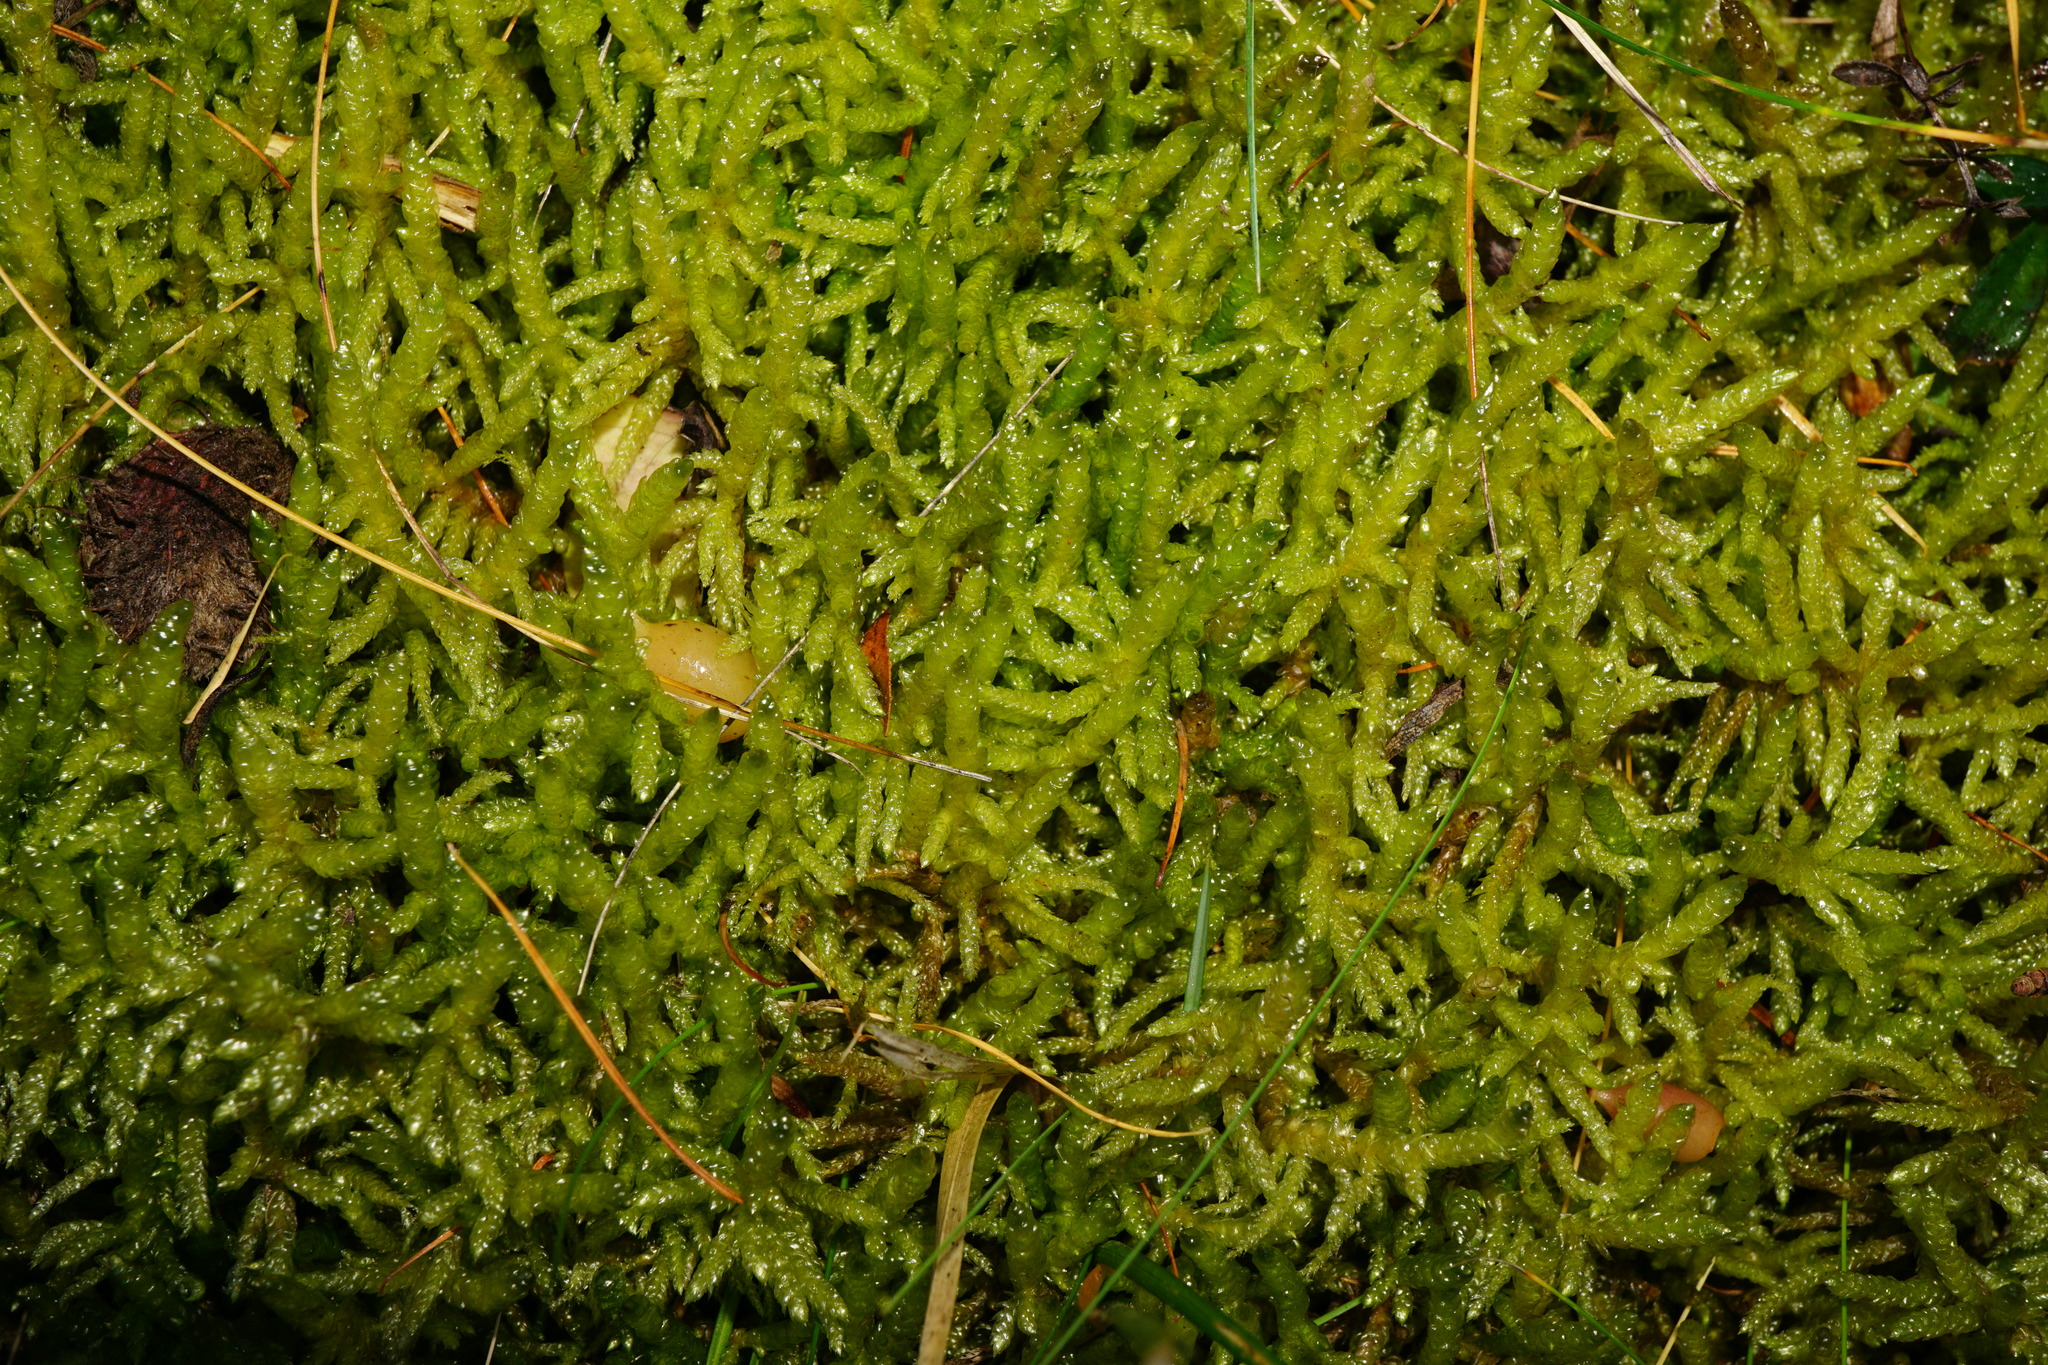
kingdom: Plantae
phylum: Bryophyta
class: Bryopsida
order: Hypnales
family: Brachytheciaceae
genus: Pseudoscleropodium
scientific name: Pseudoscleropodium purum
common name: Neat feather-moss
